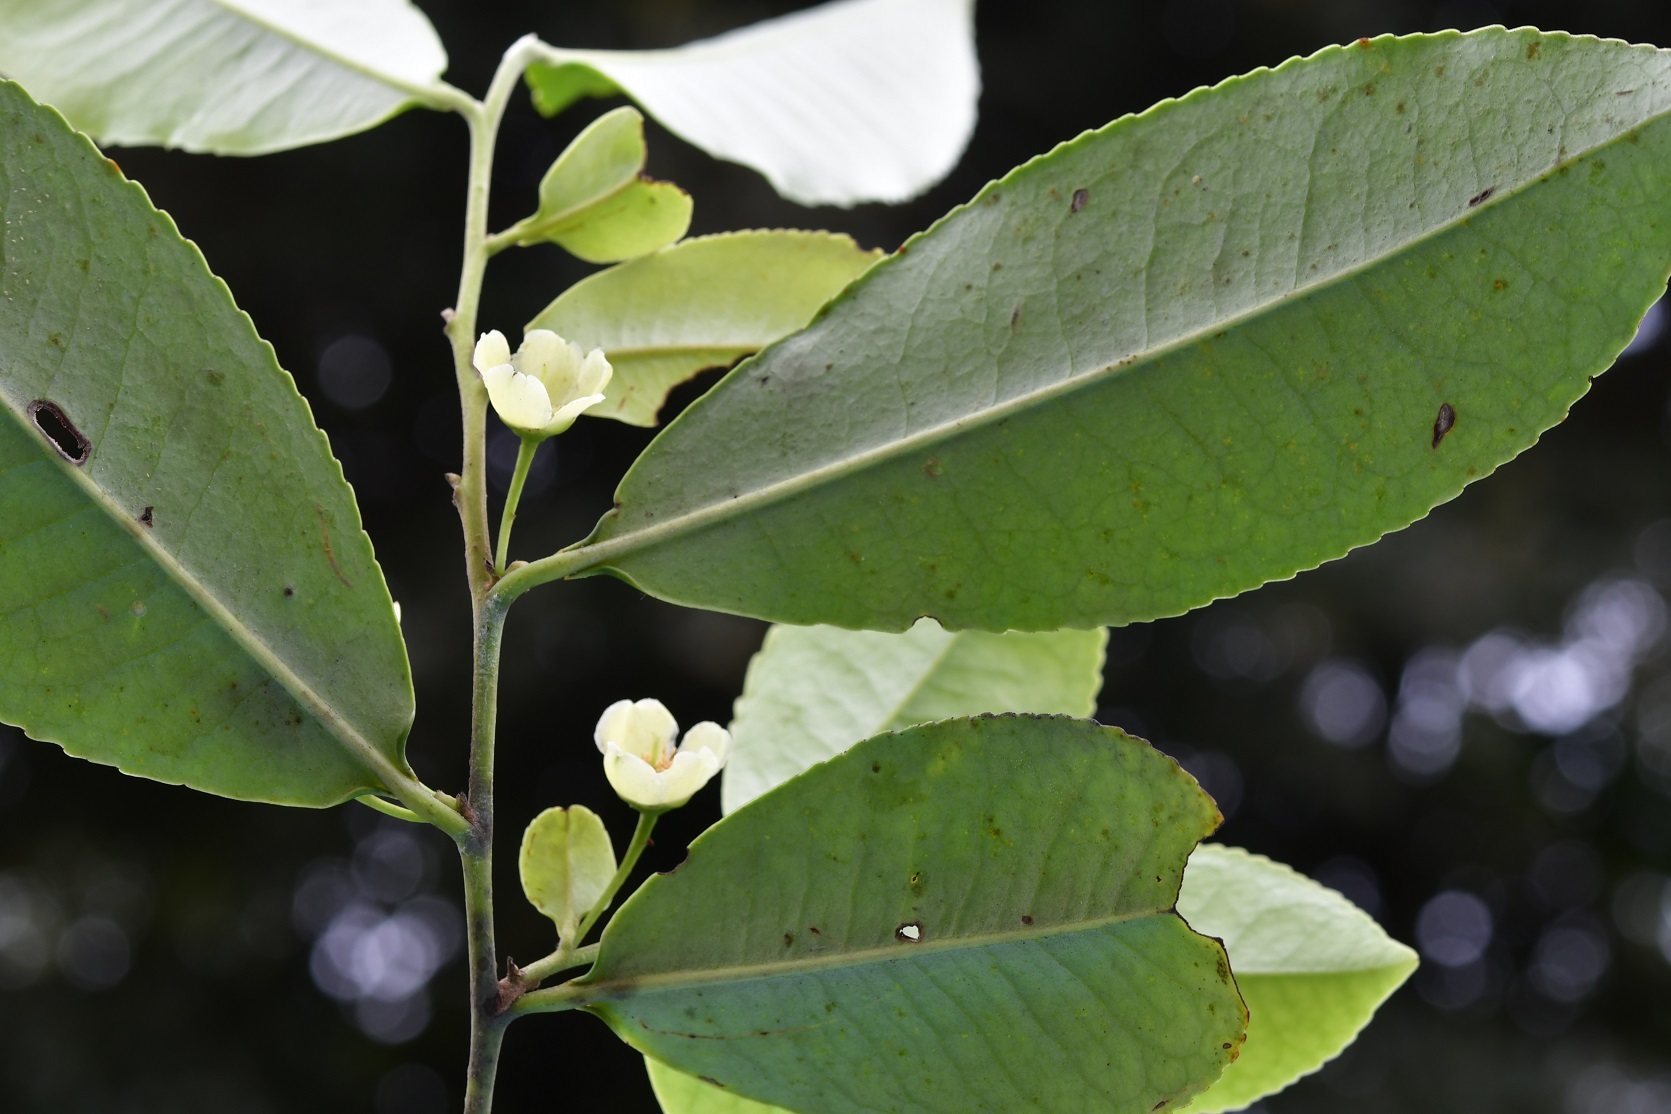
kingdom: Plantae
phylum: Tracheophyta
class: Magnoliopsida
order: Ericales
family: Pentaphylacaceae
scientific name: Pentaphylacaceae
